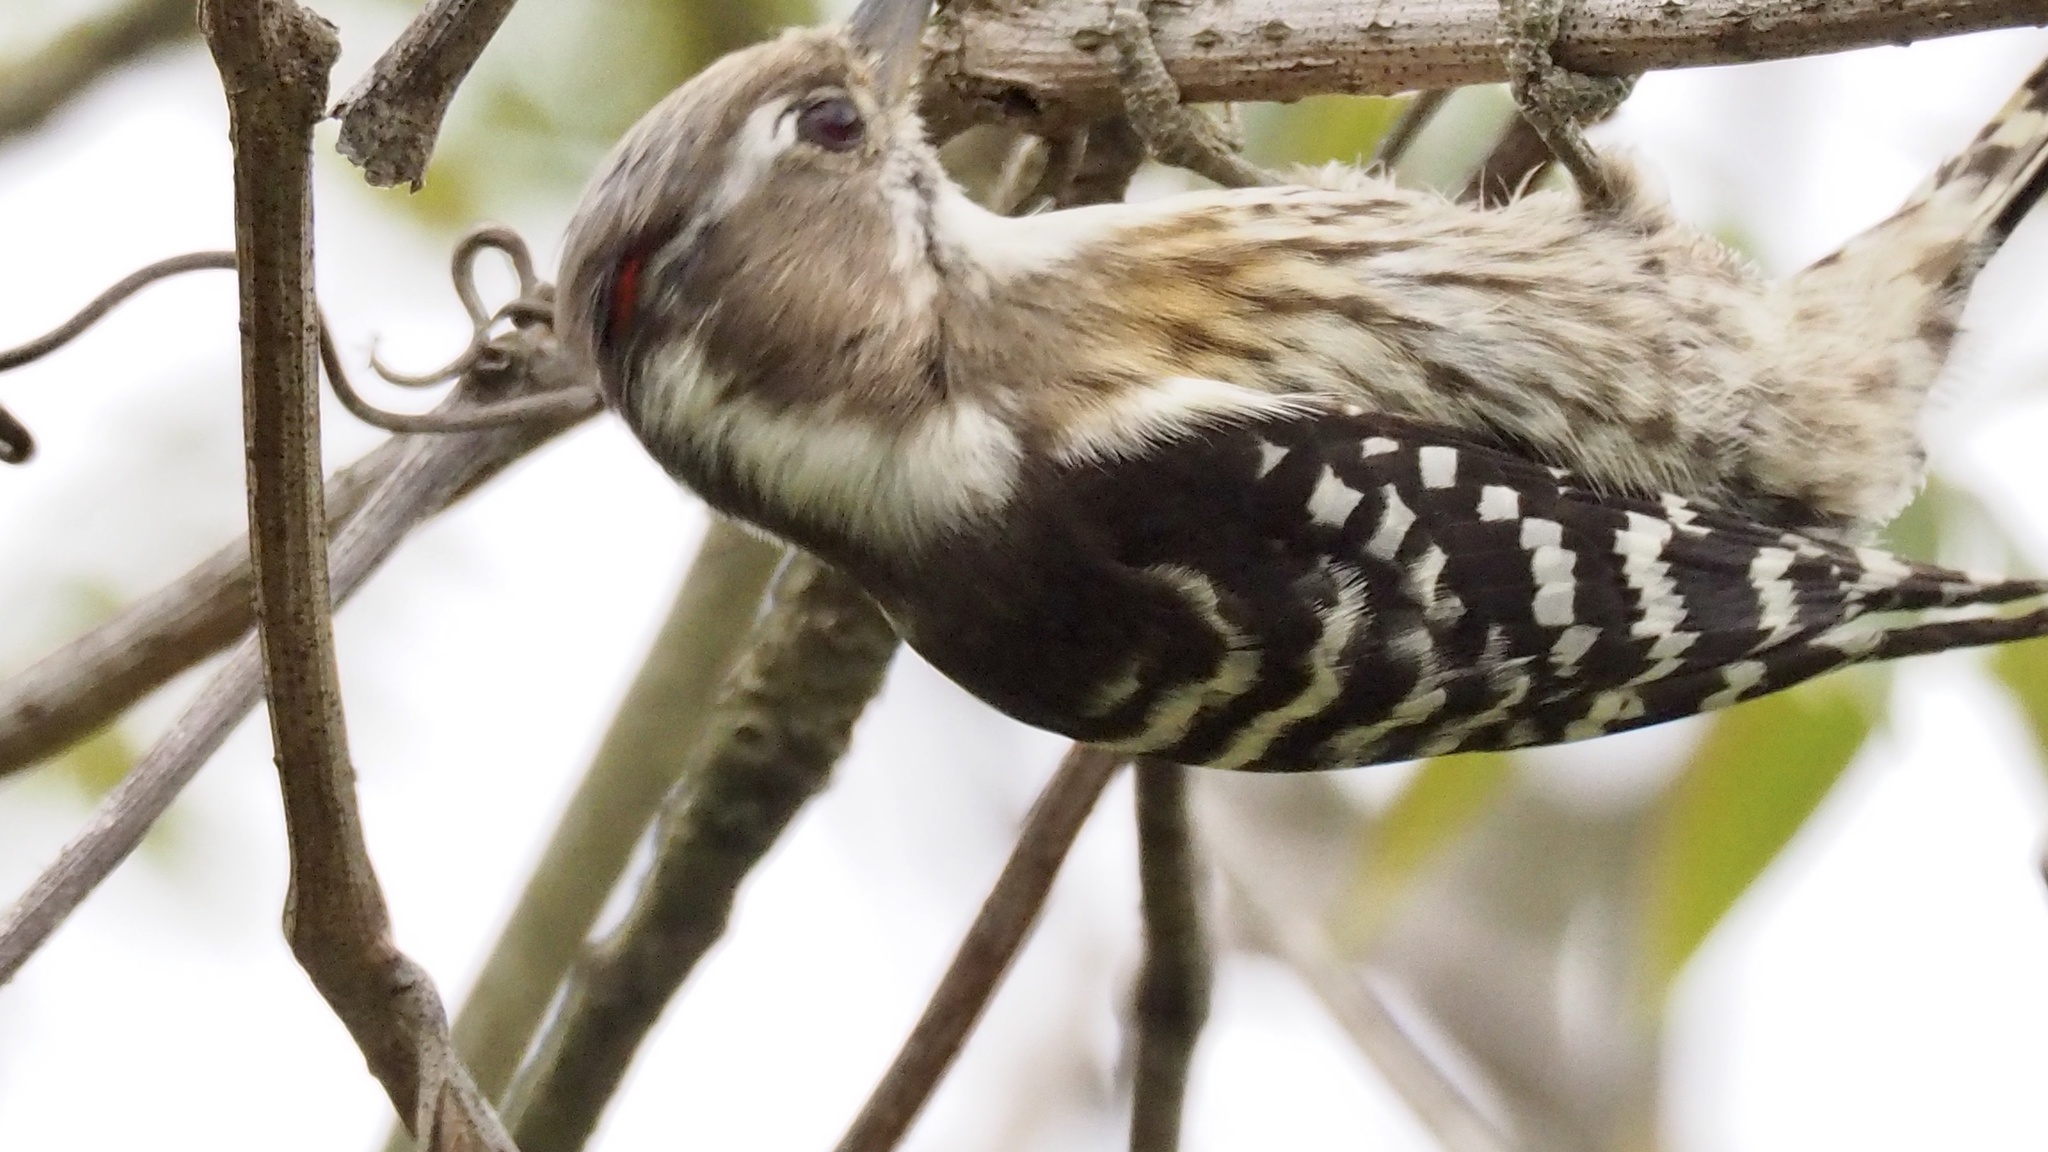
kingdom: Animalia
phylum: Chordata
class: Aves
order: Piciformes
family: Picidae
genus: Yungipicus
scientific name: Yungipicus kizuki
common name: Japanese pygmy woodpecker
